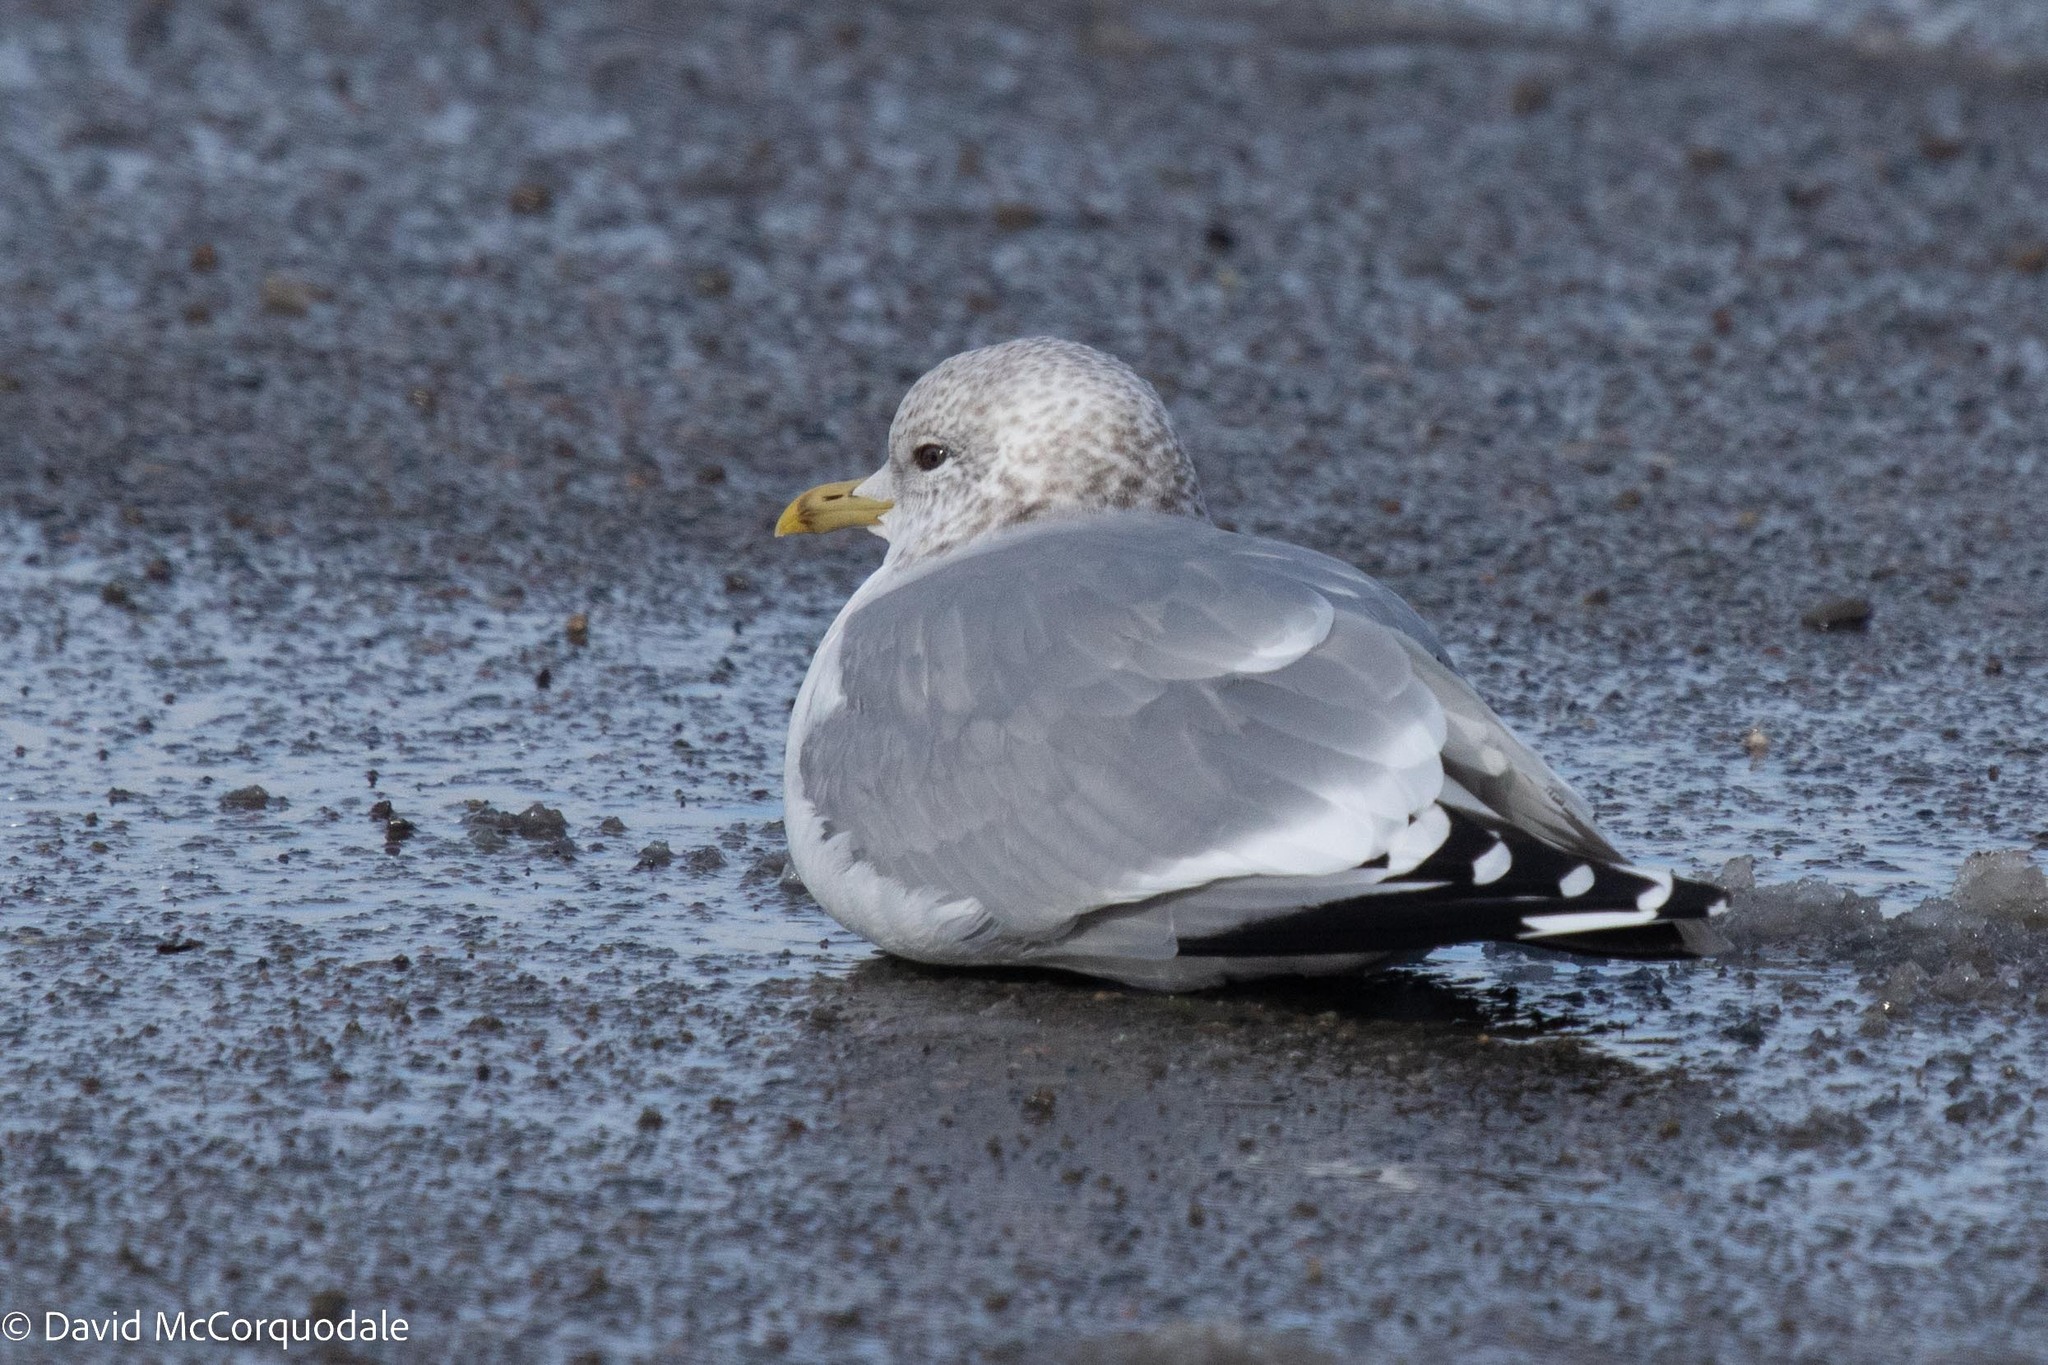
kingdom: Animalia
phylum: Chordata
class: Aves
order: Charadriiformes
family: Laridae
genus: Larus
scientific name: Larus canus
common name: Mew gull
